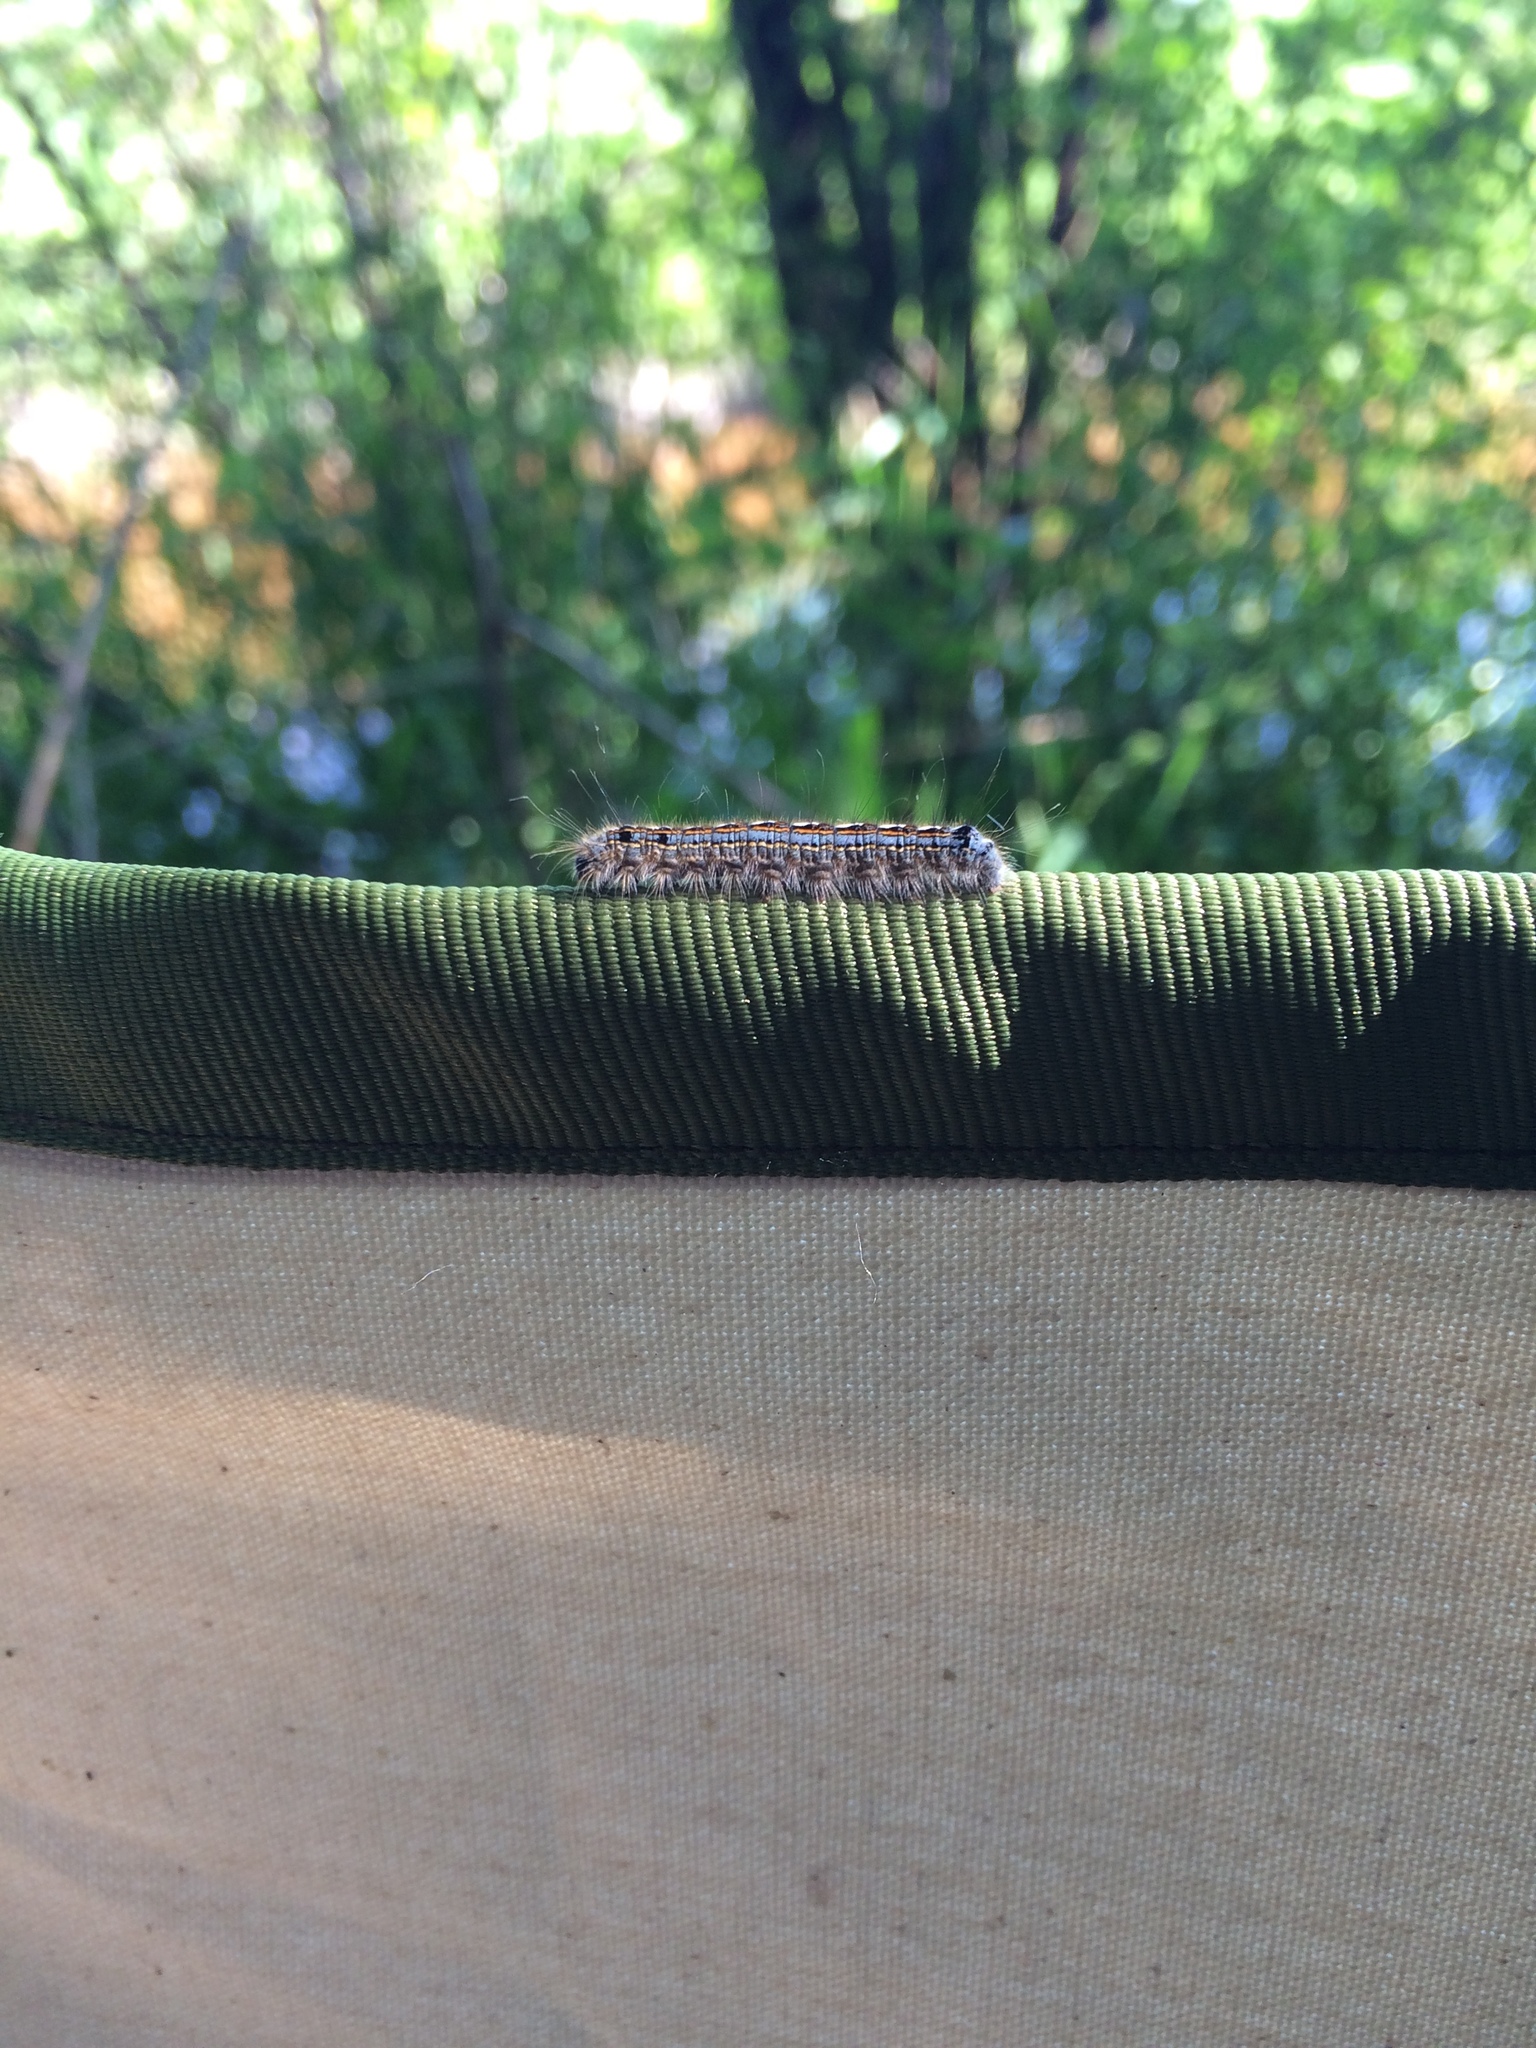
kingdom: Animalia
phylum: Arthropoda
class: Insecta
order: Lepidoptera
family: Lasiocampidae
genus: Malacosoma
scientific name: Malacosoma disstria
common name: Forest tent caterpillar
